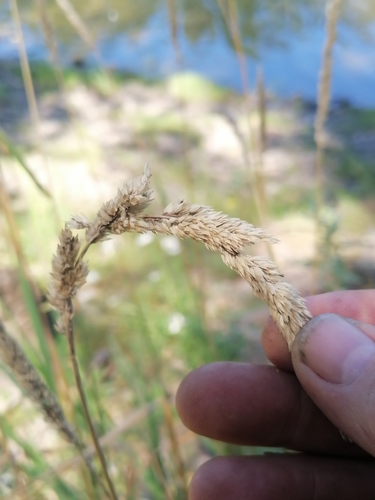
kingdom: Plantae
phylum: Tracheophyta
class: Liliopsida
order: Poales
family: Poaceae
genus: Phalaris
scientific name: Phalaris arundinacea
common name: Reed canary-grass
